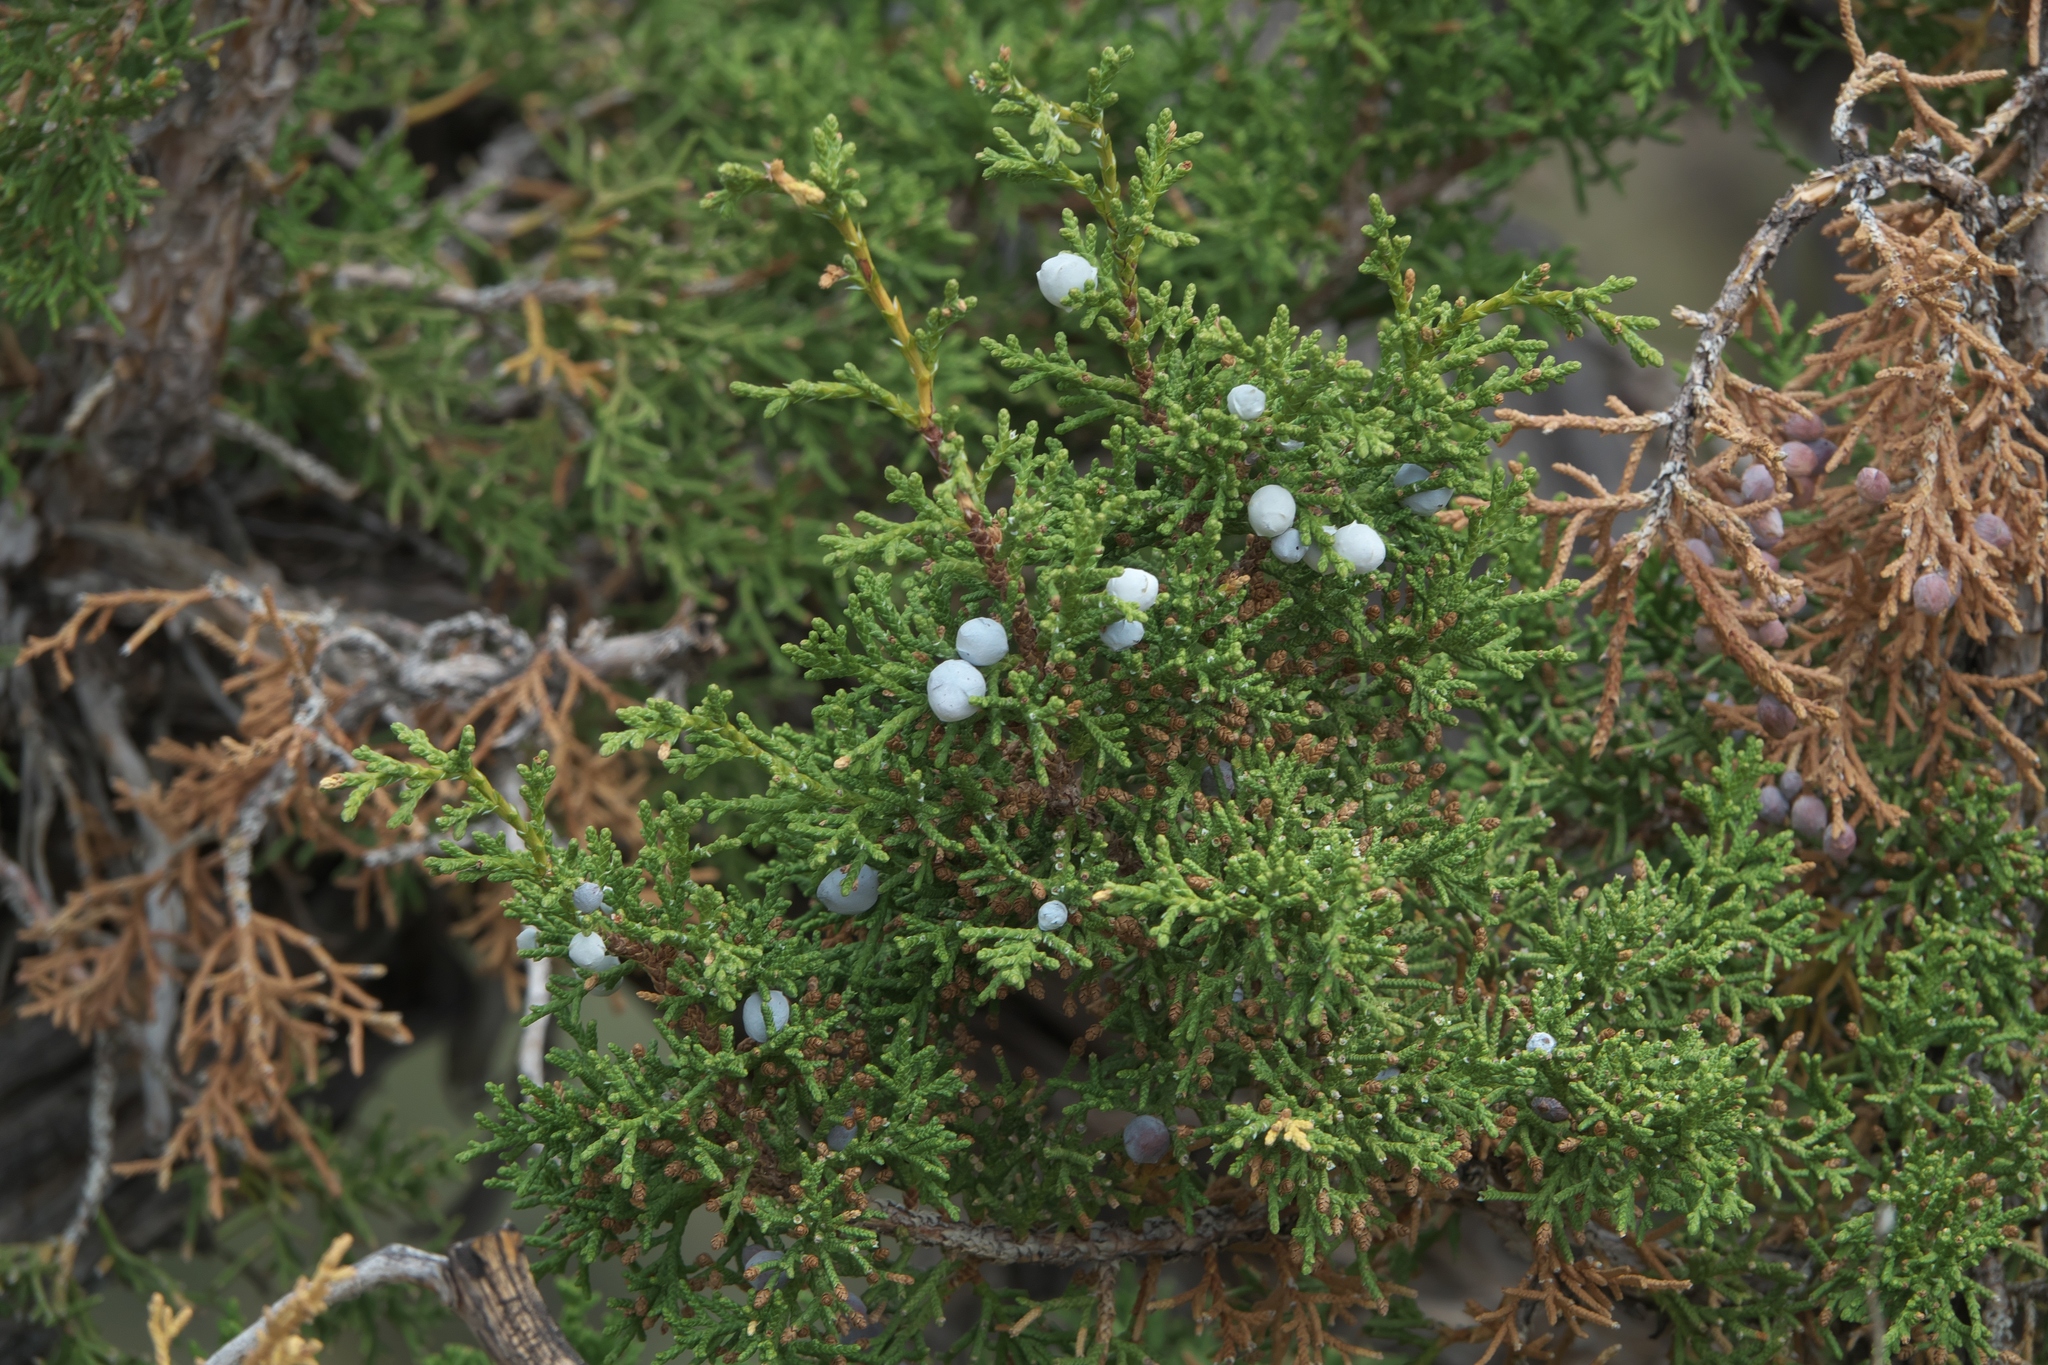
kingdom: Plantae
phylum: Tracheophyta
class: Pinopsida
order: Pinales
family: Cupressaceae
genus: Juniperus
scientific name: Juniperus osteosperma
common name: Utah juniper
